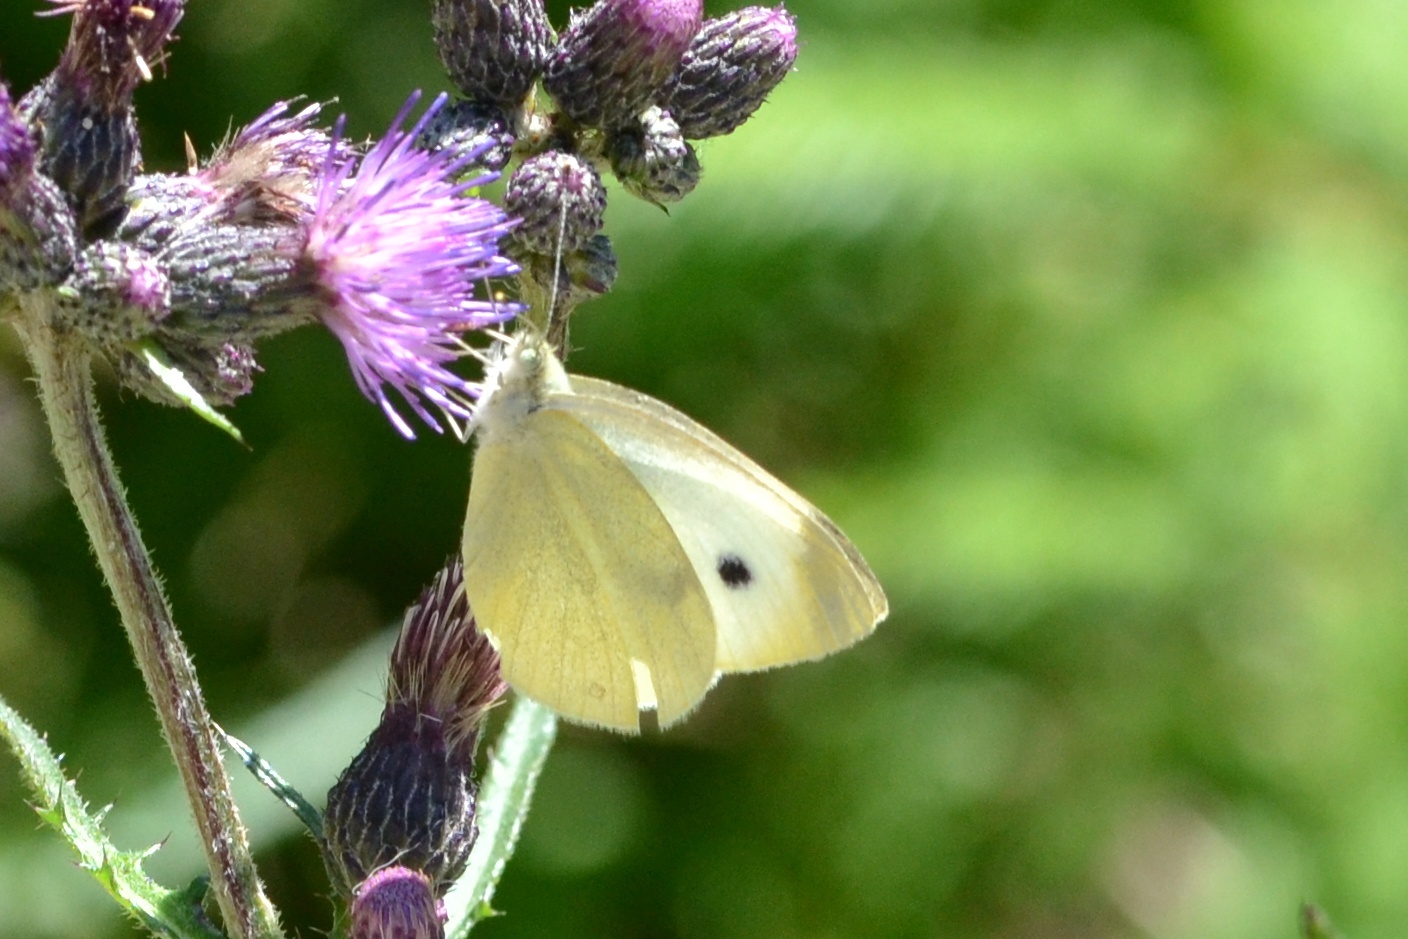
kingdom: Animalia
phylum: Arthropoda
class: Insecta
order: Lepidoptera
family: Pieridae
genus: Pieris
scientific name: Pieris rapae
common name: Small white
